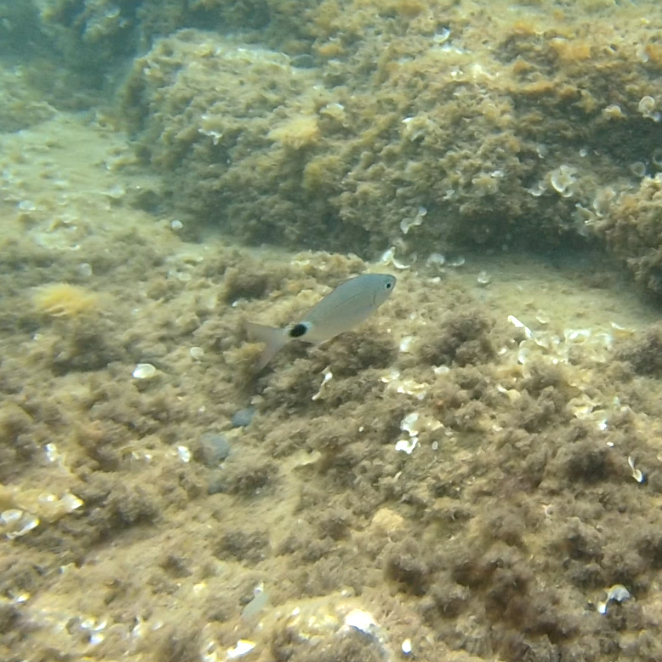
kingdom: Animalia
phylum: Chordata
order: Perciformes
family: Sparidae
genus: Oblada
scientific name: Oblada melanura
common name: Saddled seabream
